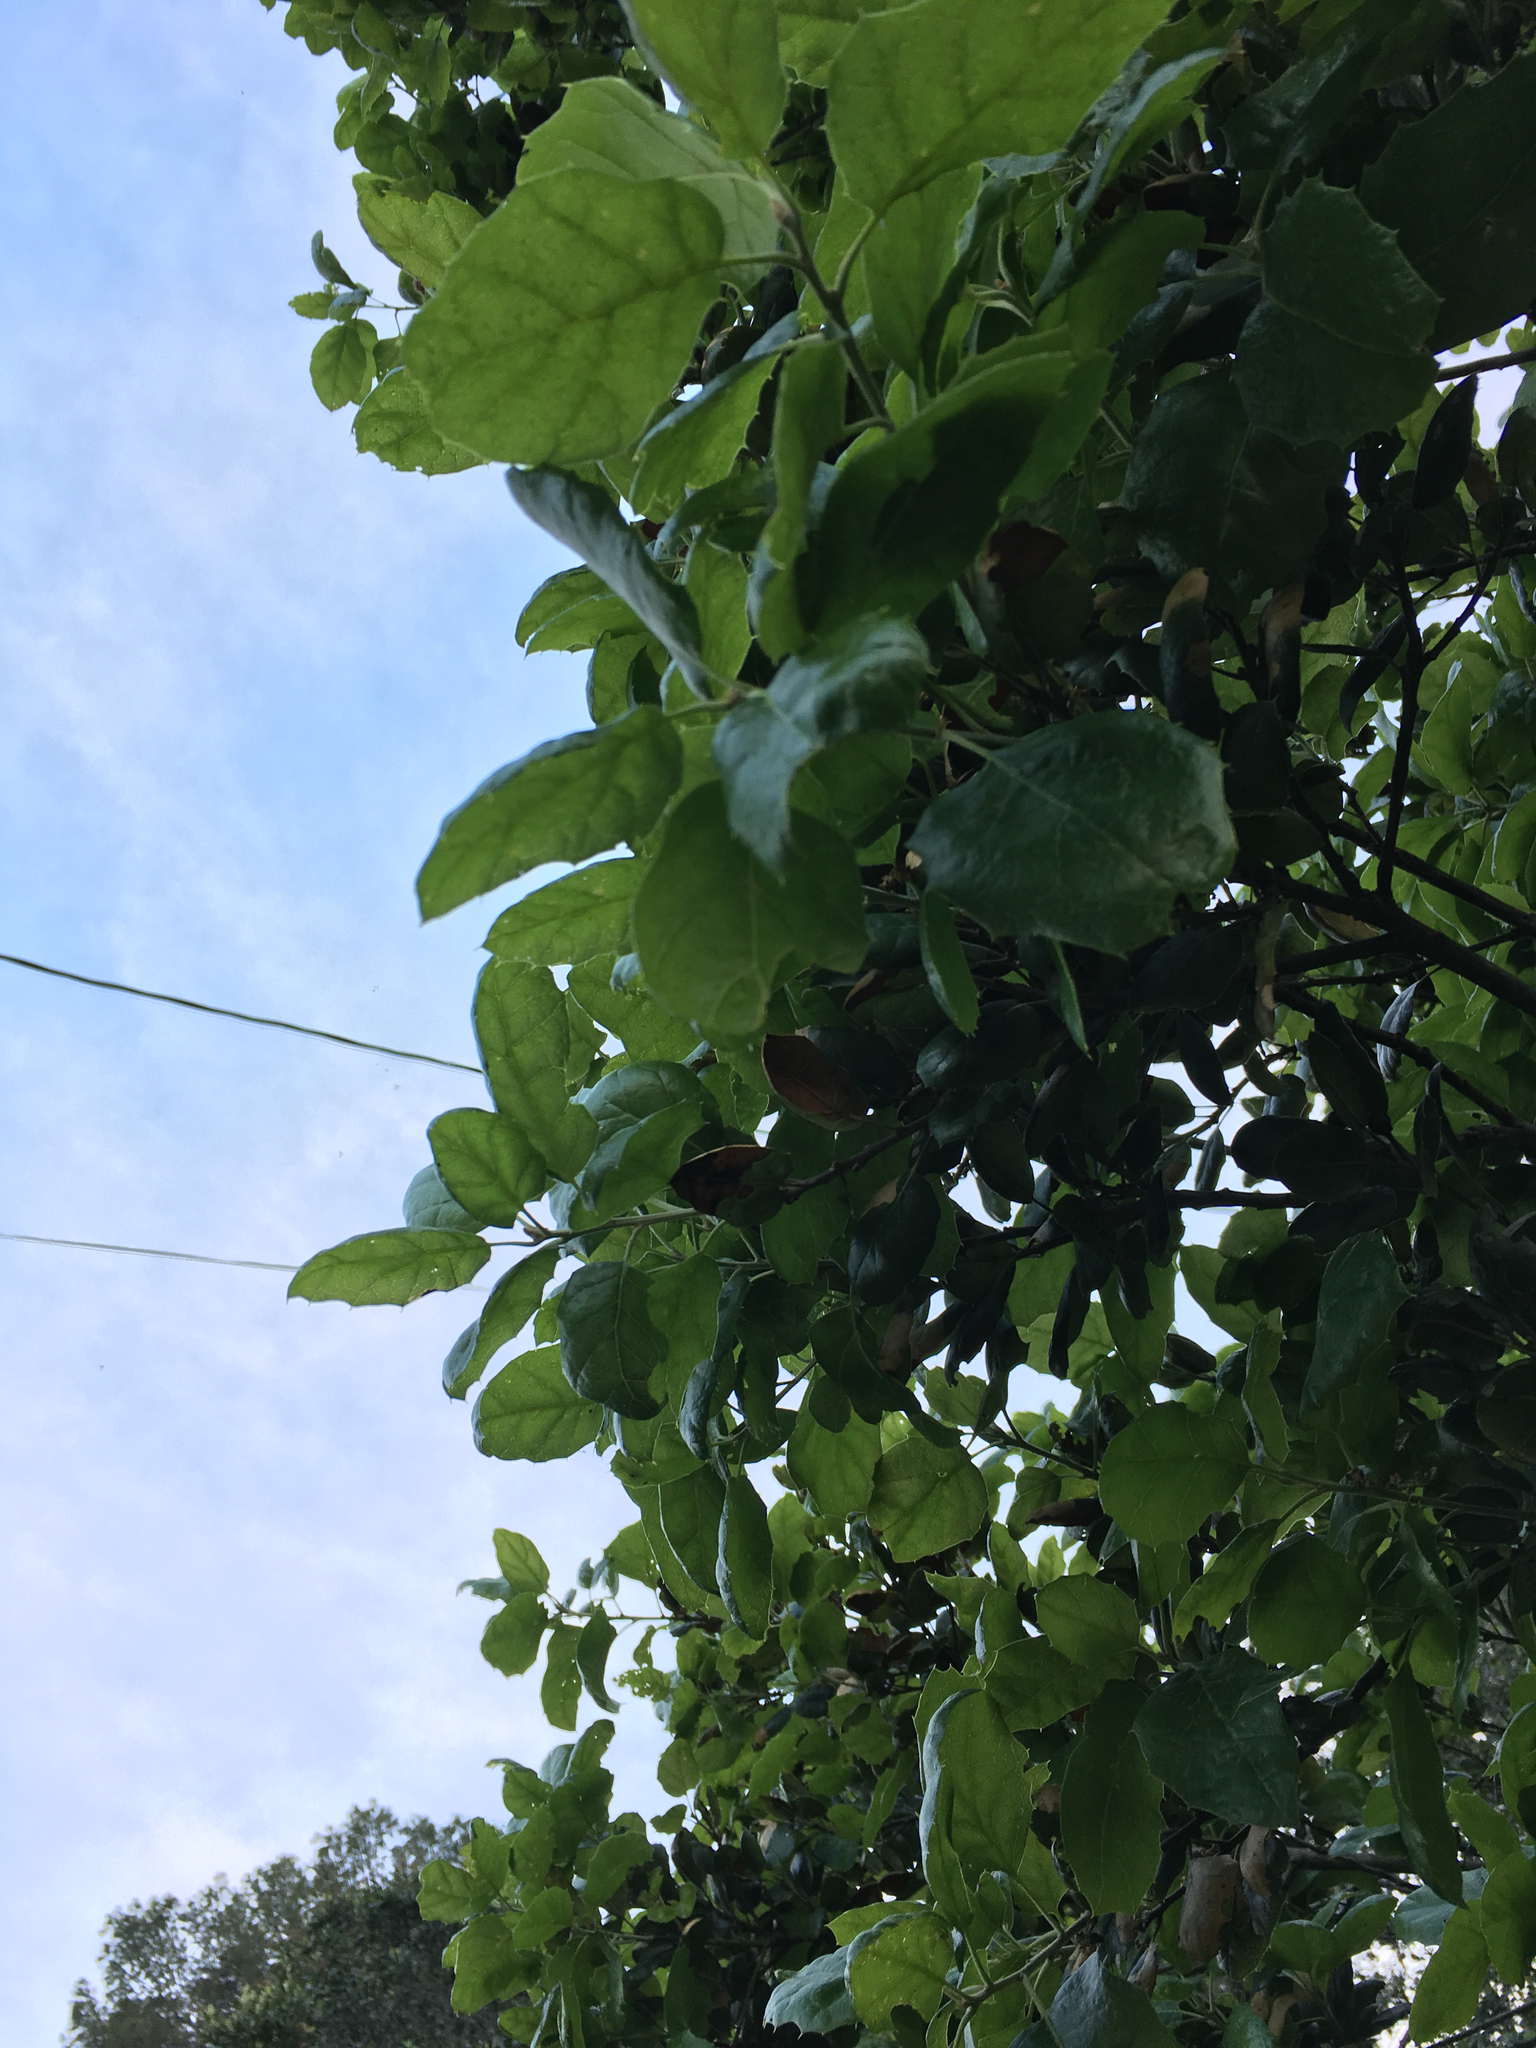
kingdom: Plantae
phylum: Tracheophyta
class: Magnoliopsida
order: Fagales
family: Fagaceae
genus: Quercus
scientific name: Quercus agrifolia
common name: California live oak
